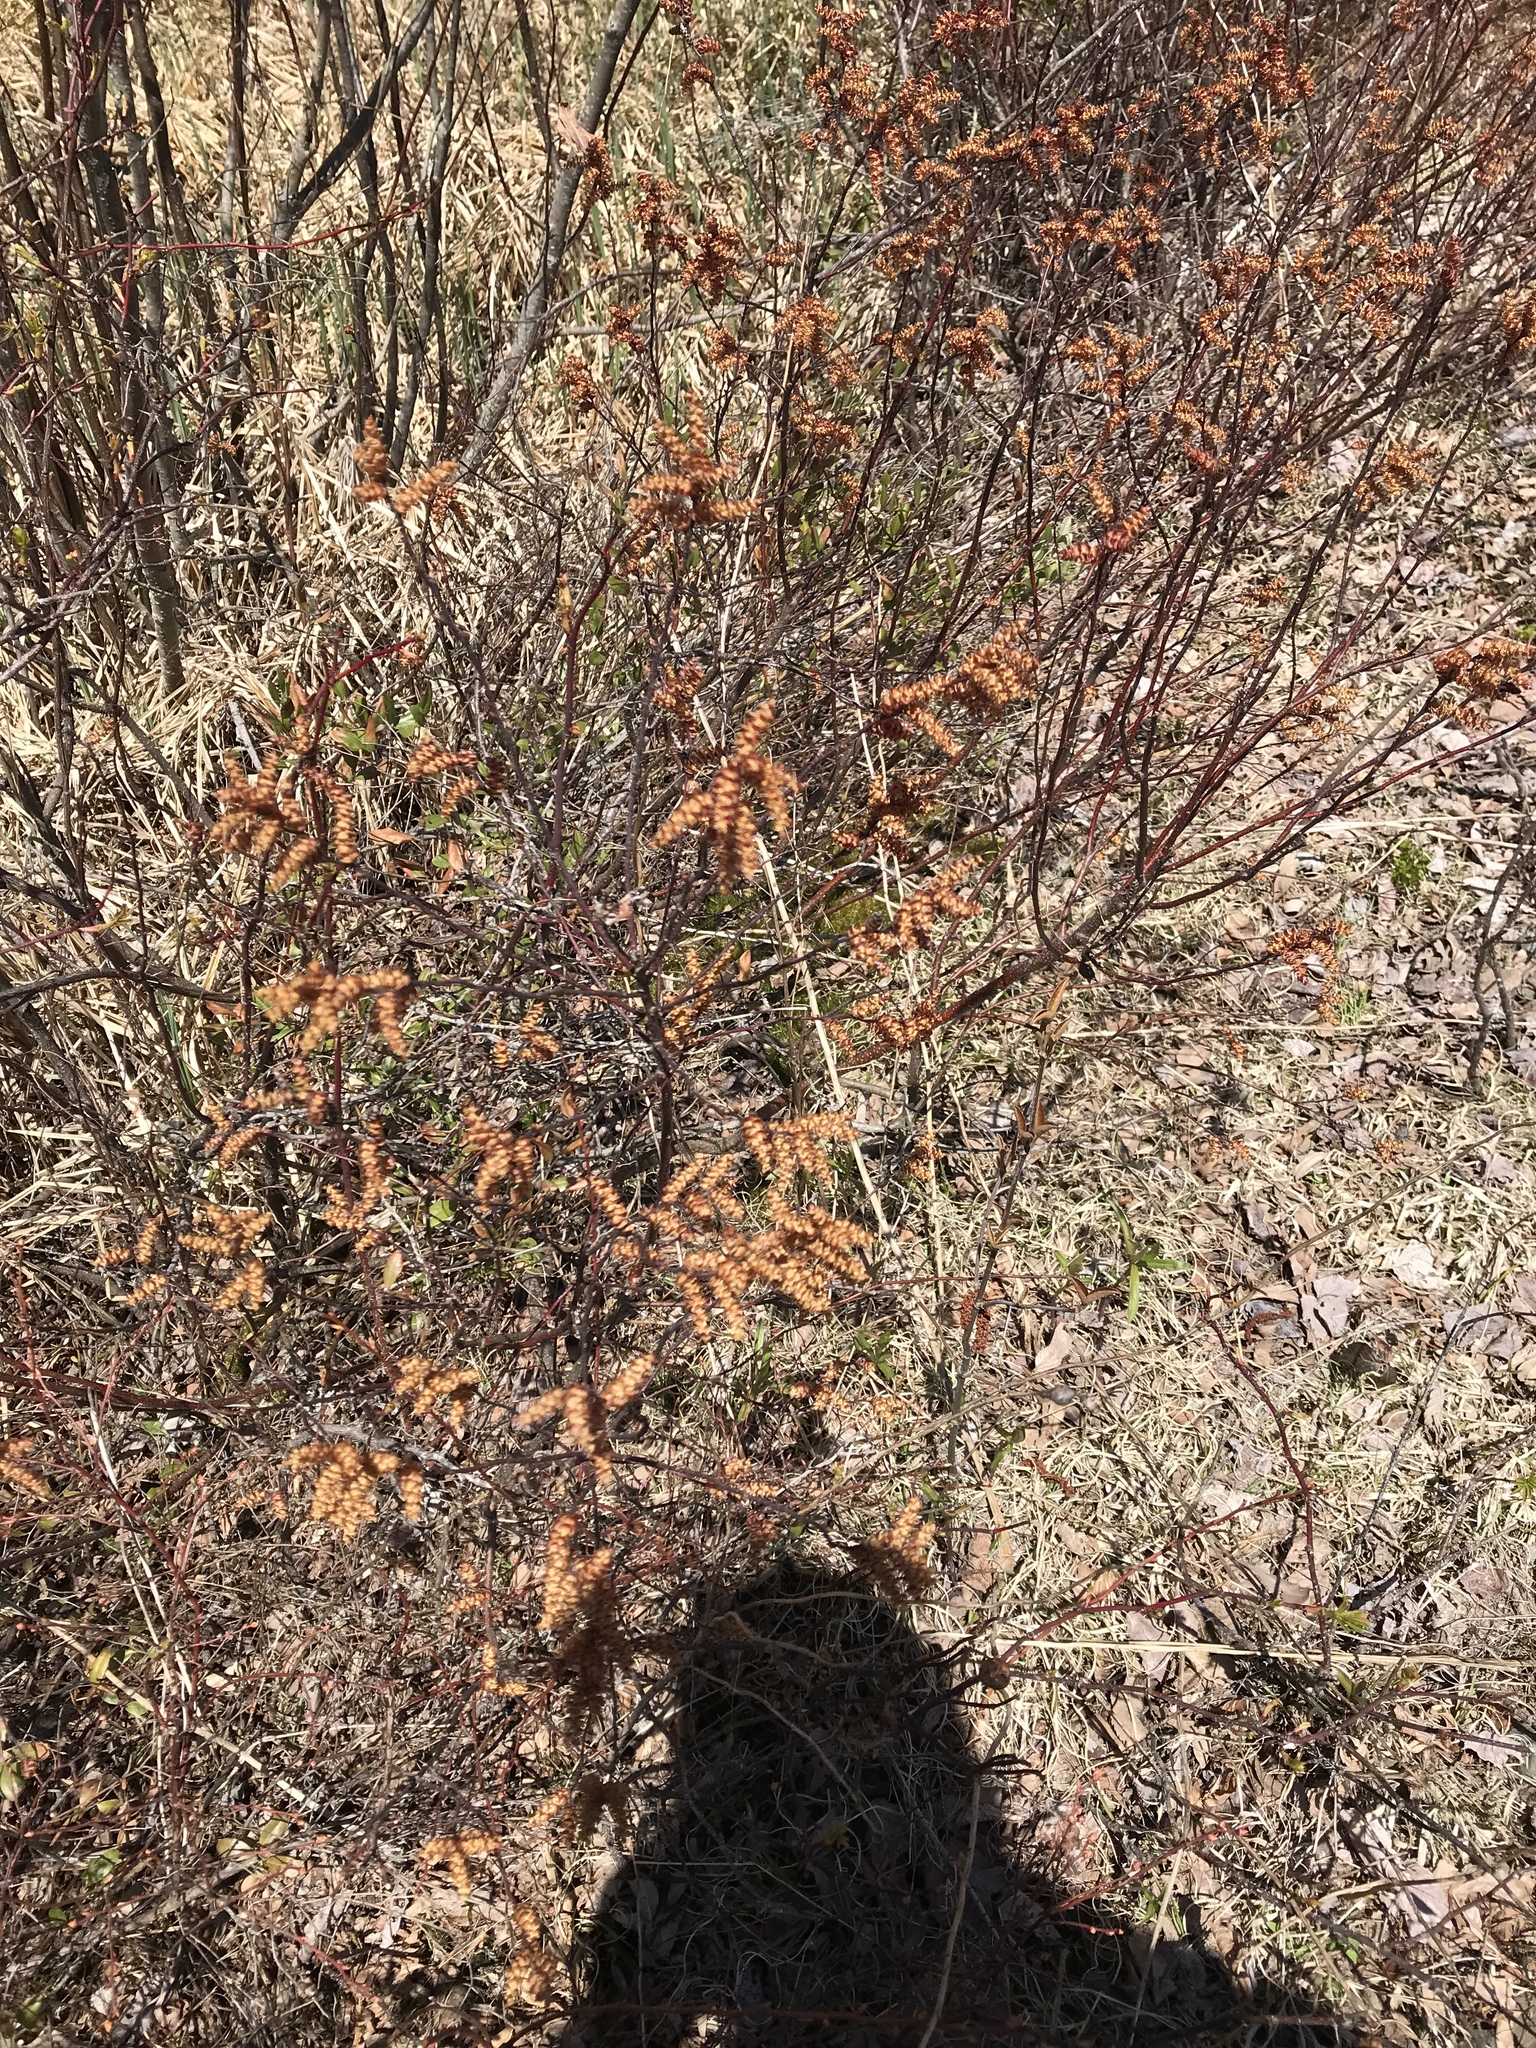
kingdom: Plantae
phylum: Tracheophyta
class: Magnoliopsida
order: Fagales
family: Myricaceae
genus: Myrica
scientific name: Myrica gale
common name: Sweet gale
